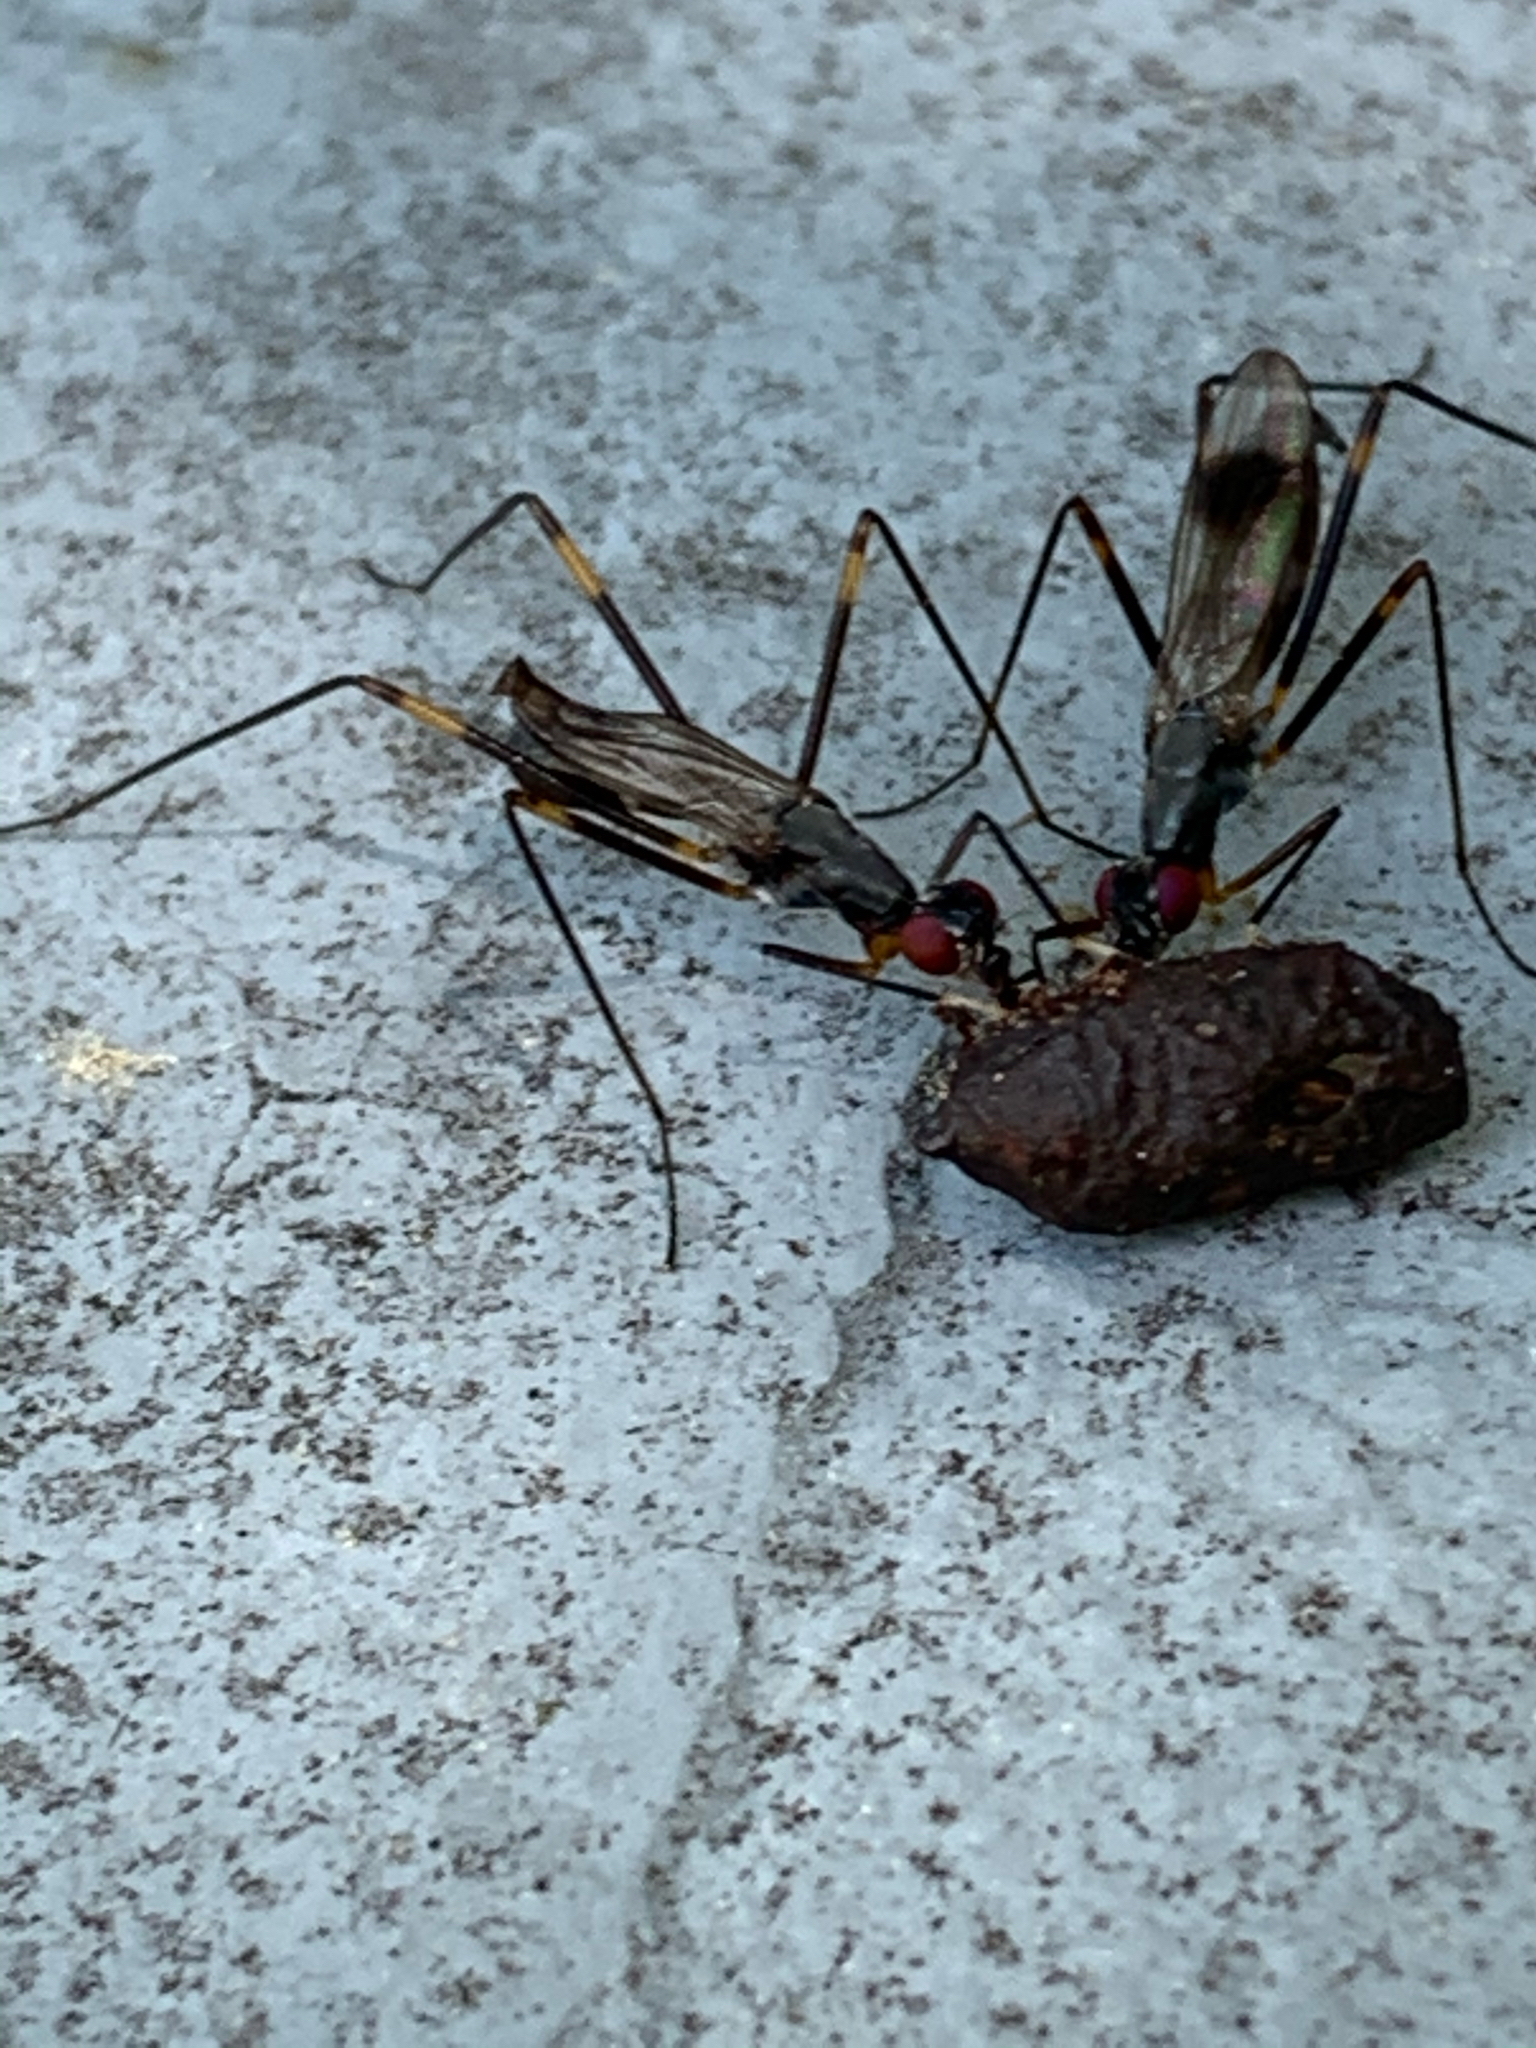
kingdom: Animalia
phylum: Arthropoda
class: Insecta
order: Diptera
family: Micropezidae
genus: Rainieria
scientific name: Rainieria antennaepes
